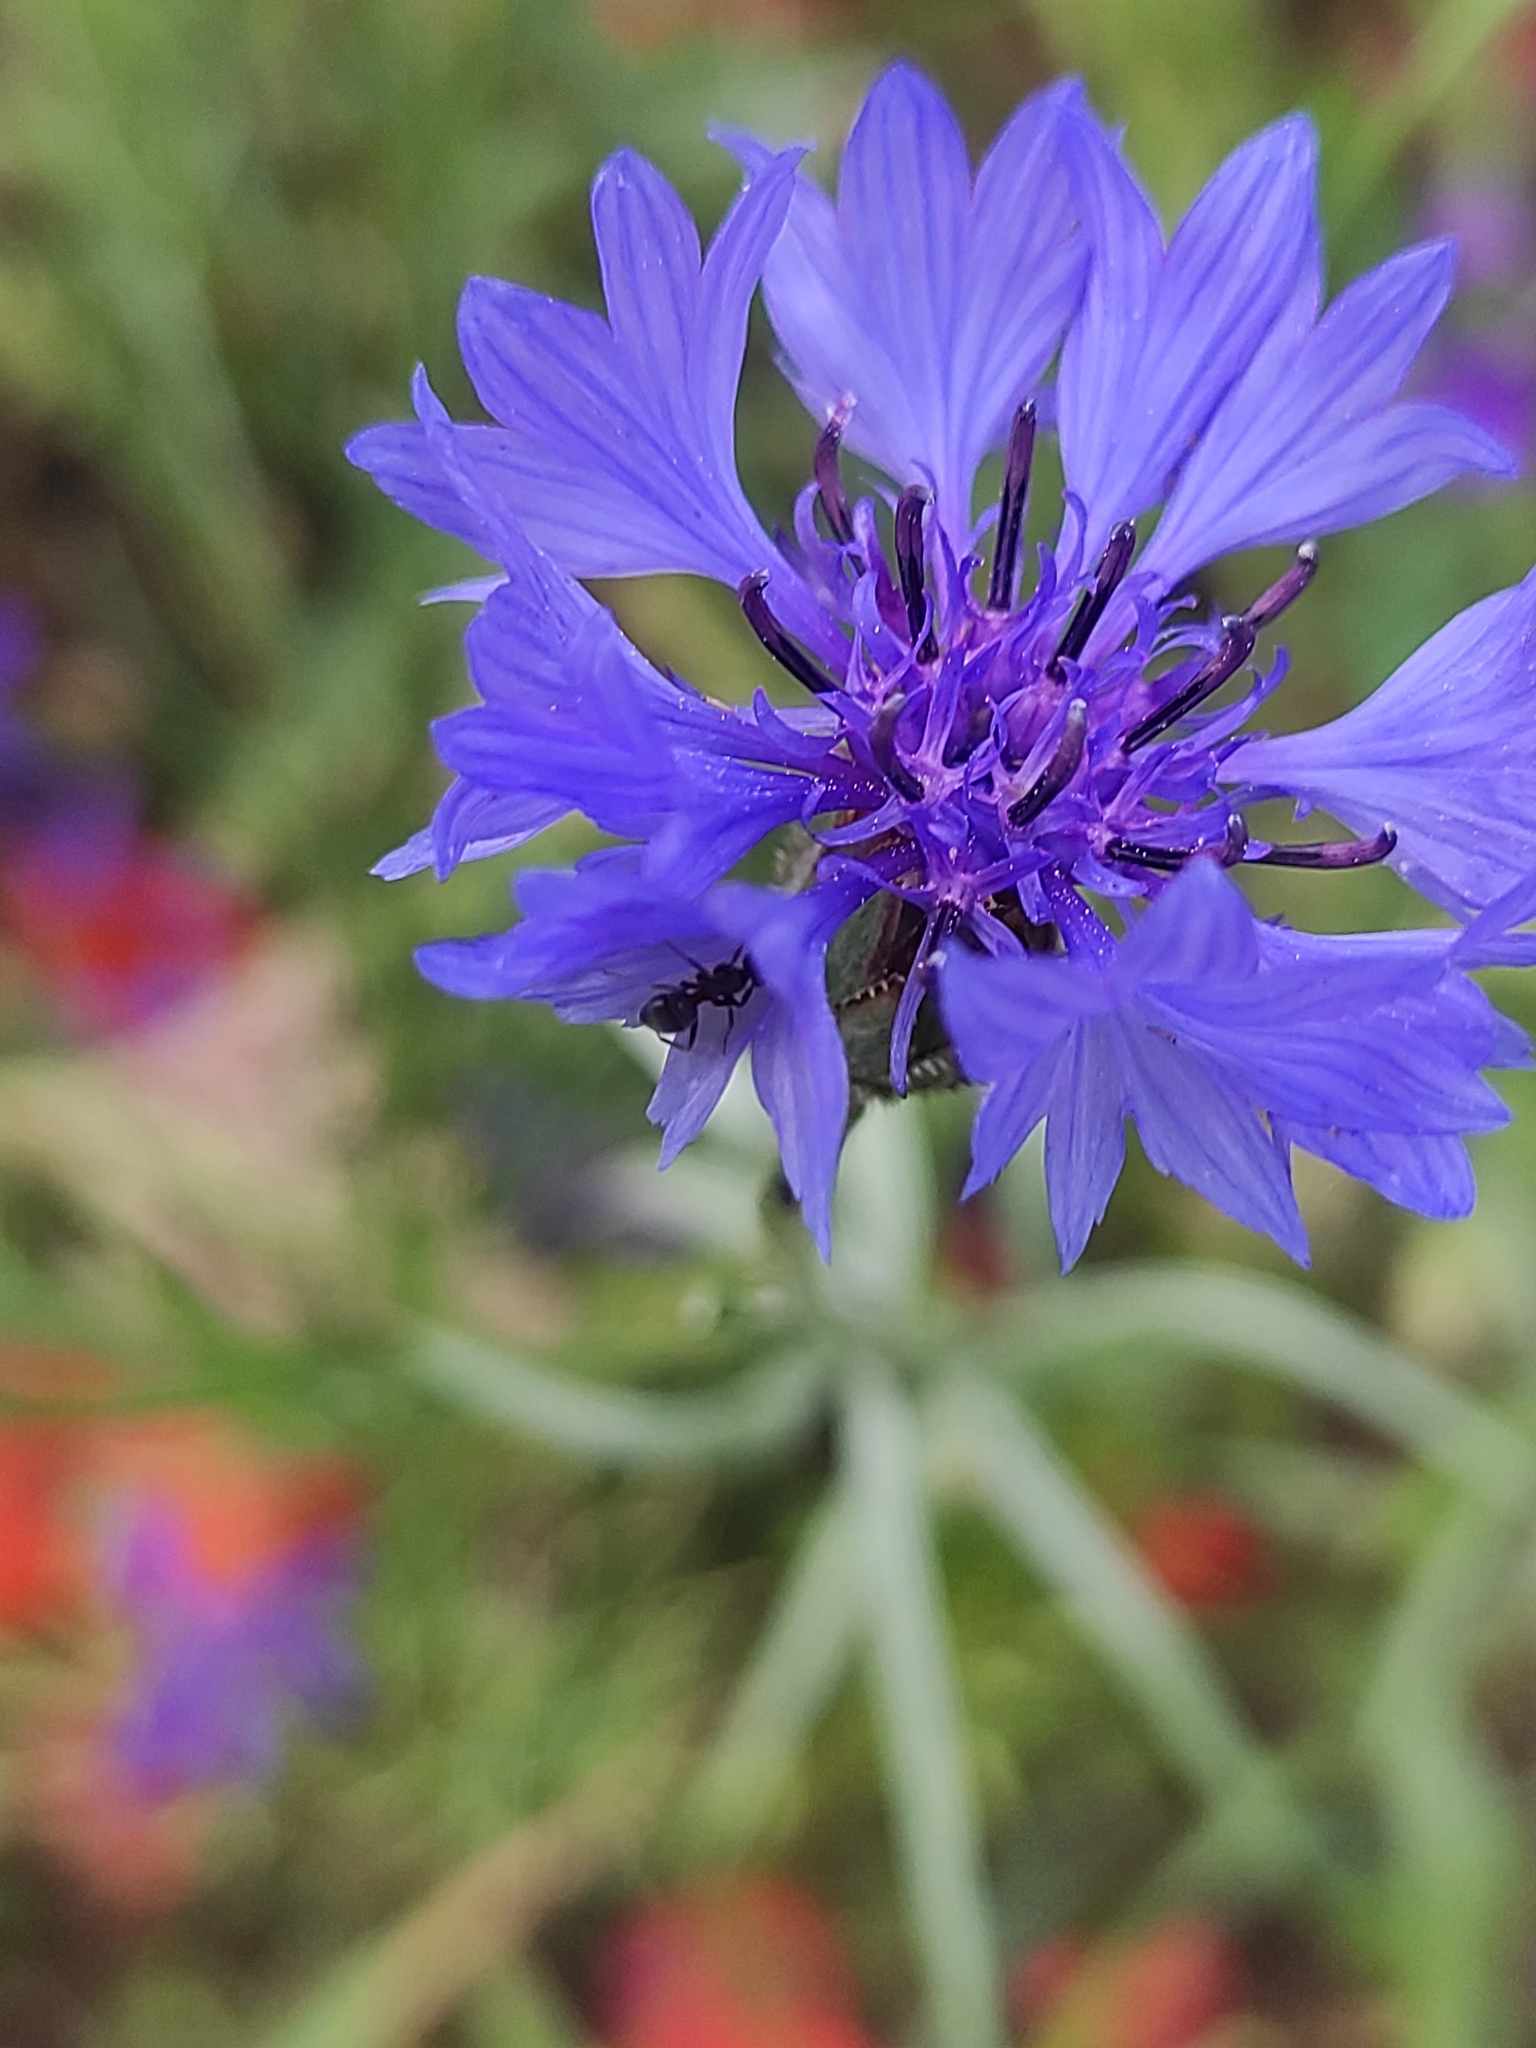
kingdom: Plantae
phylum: Tracheophyta
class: Magnoliopsida
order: Asterales
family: Asteraceae
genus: Centaurea
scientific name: Centaurea cyanus
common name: Cornflower
